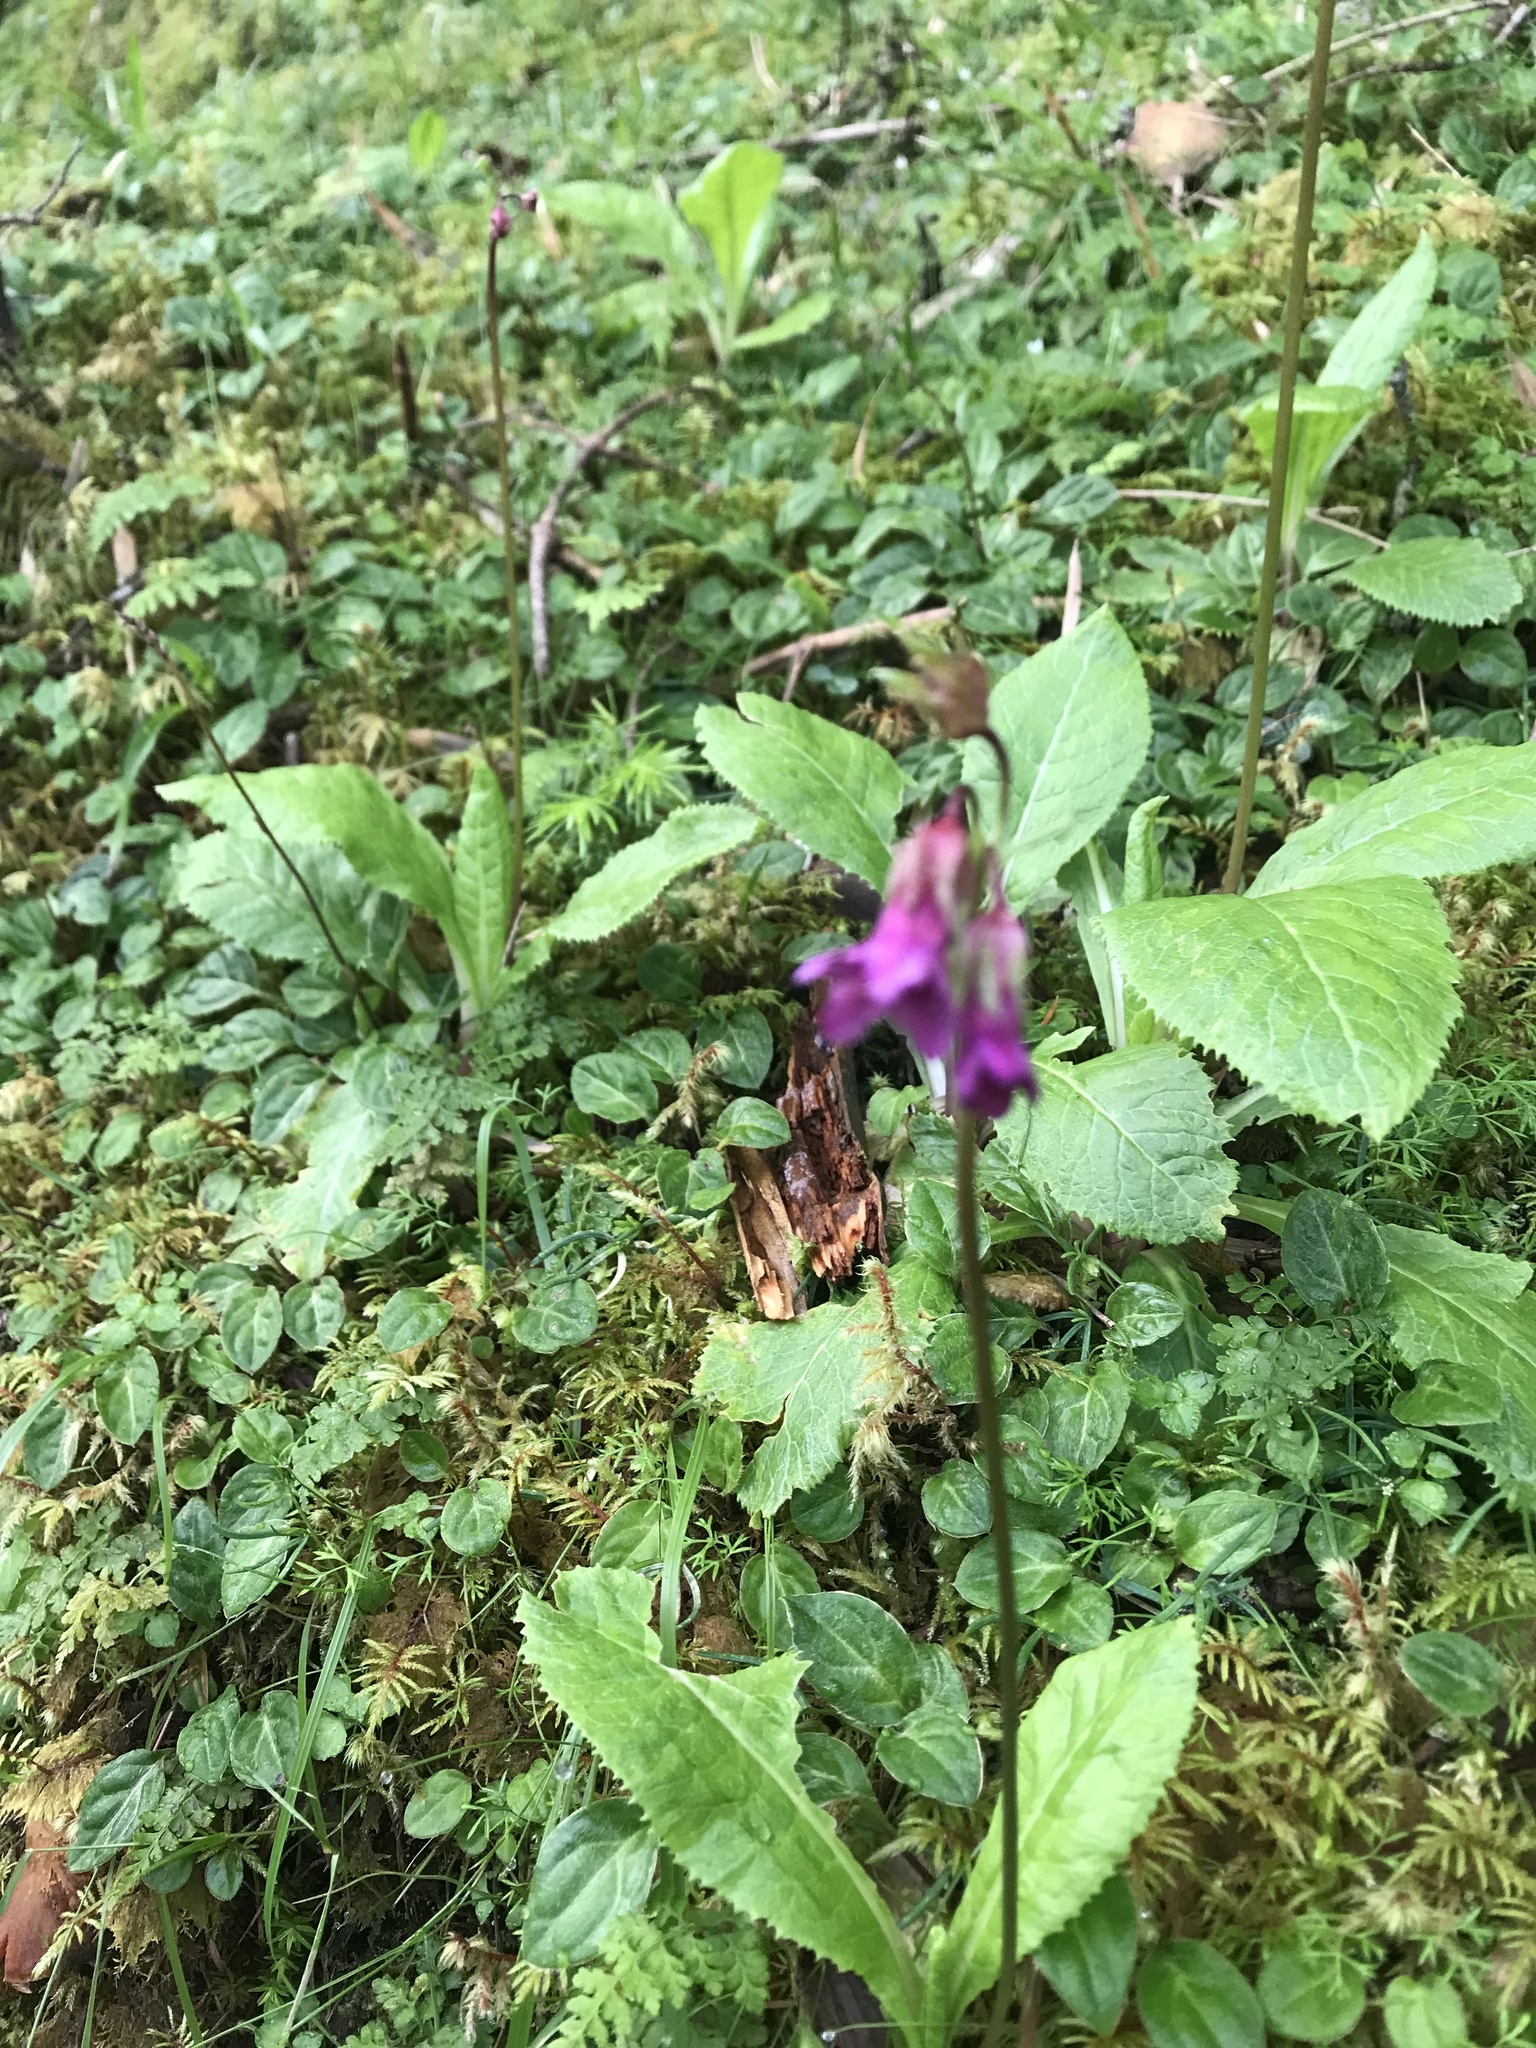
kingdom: Plantae
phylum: Tracheophyta
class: Magnoliopsida
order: Ericales
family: Primulaceae
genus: Primula
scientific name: Primula miyabeana
